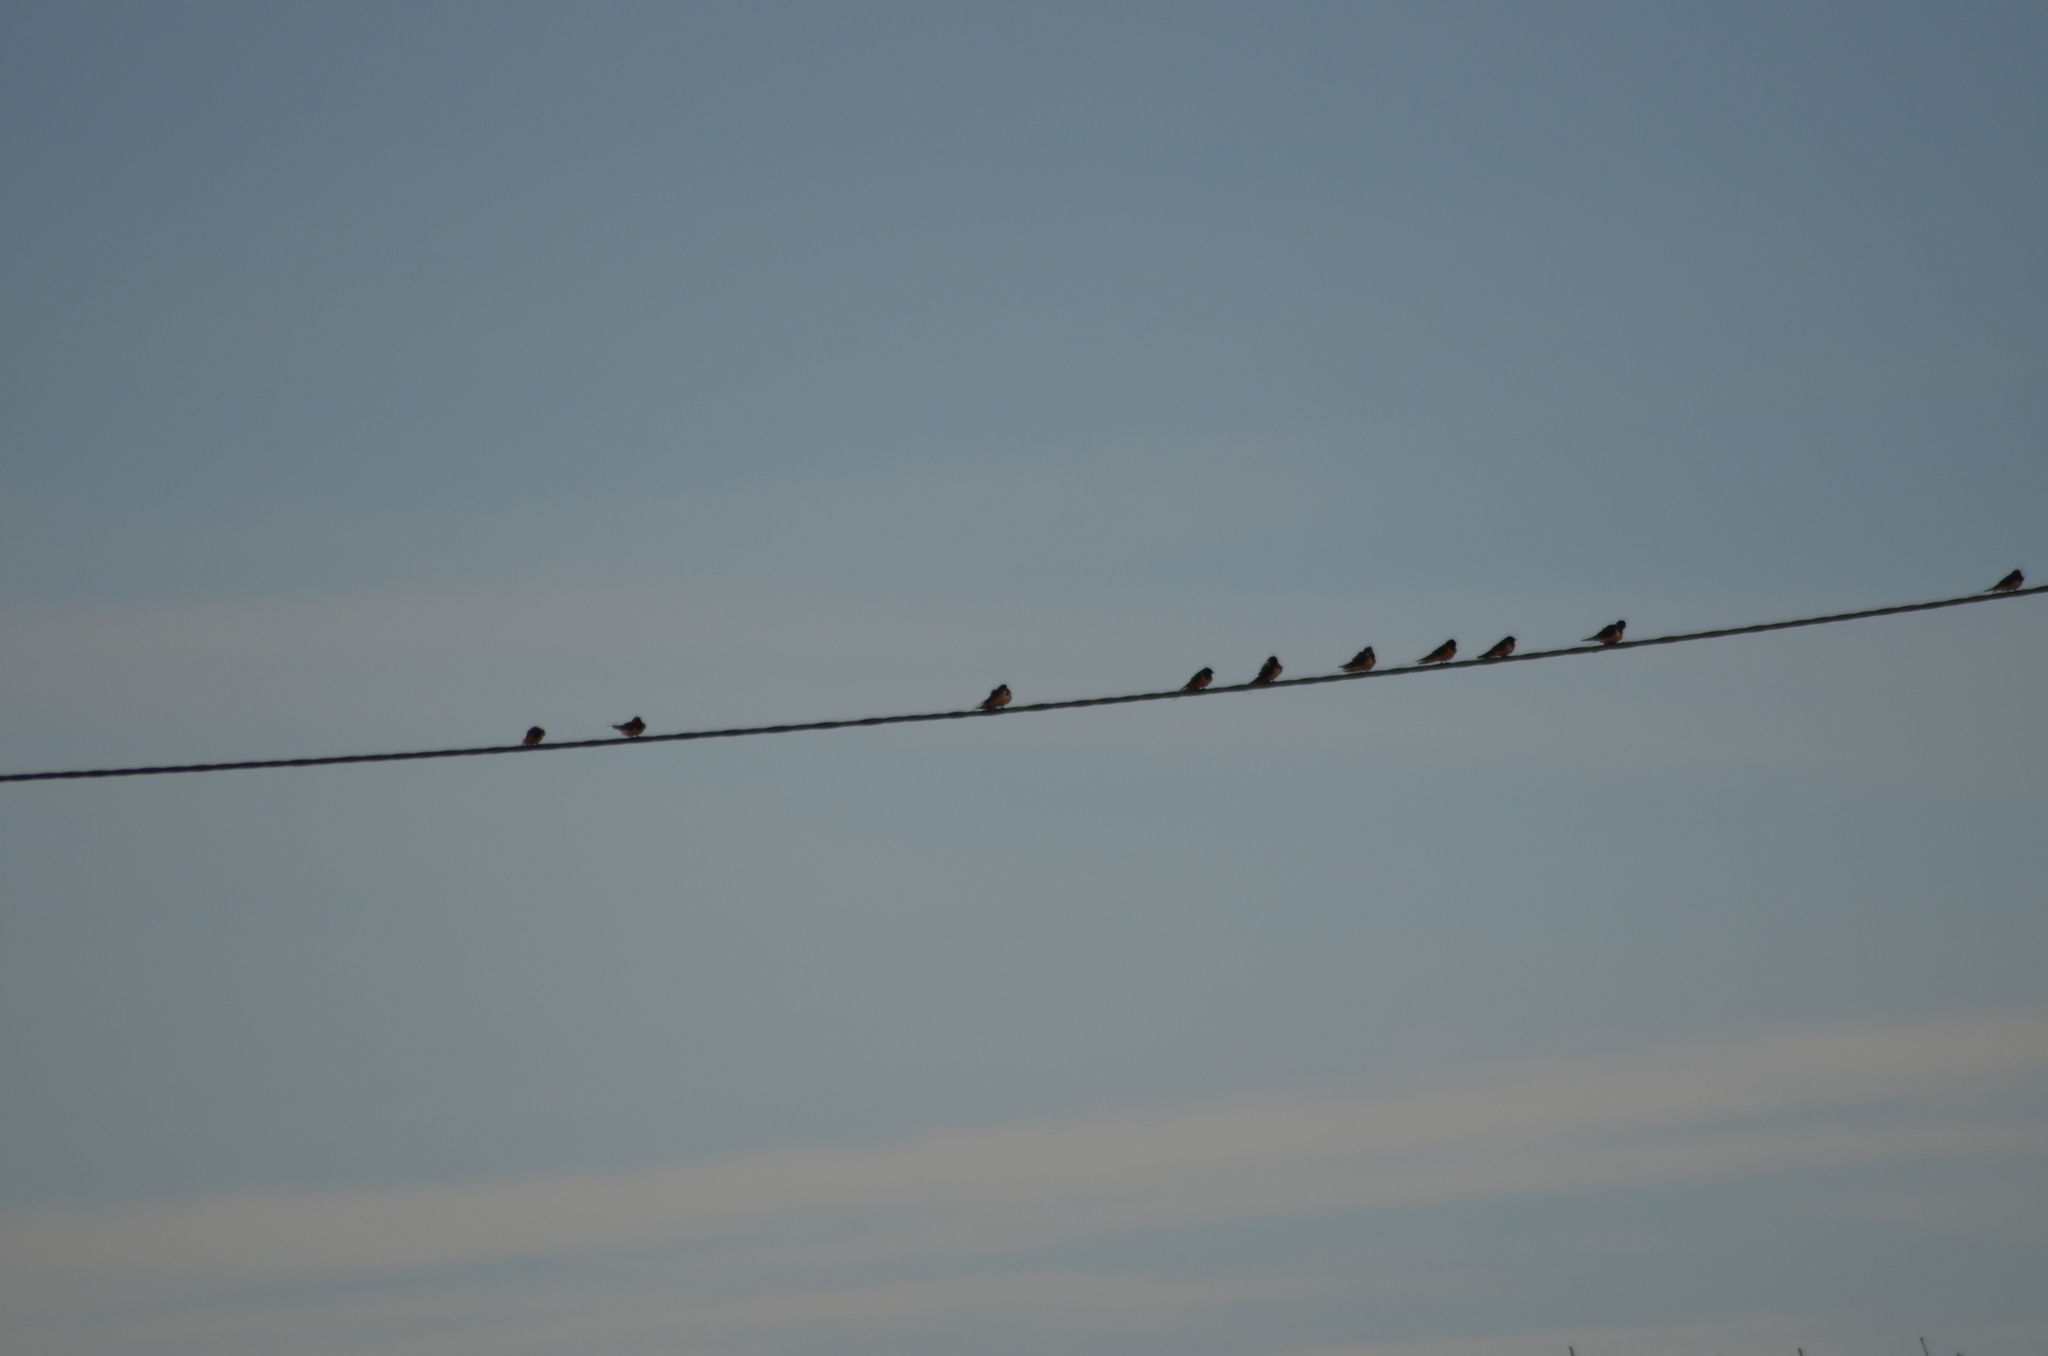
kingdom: Animalia
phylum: Chordata
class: Aves
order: Passeriformes
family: Hirundinidae
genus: Hirundo
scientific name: Hirundo rustica
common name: Barn swallow
